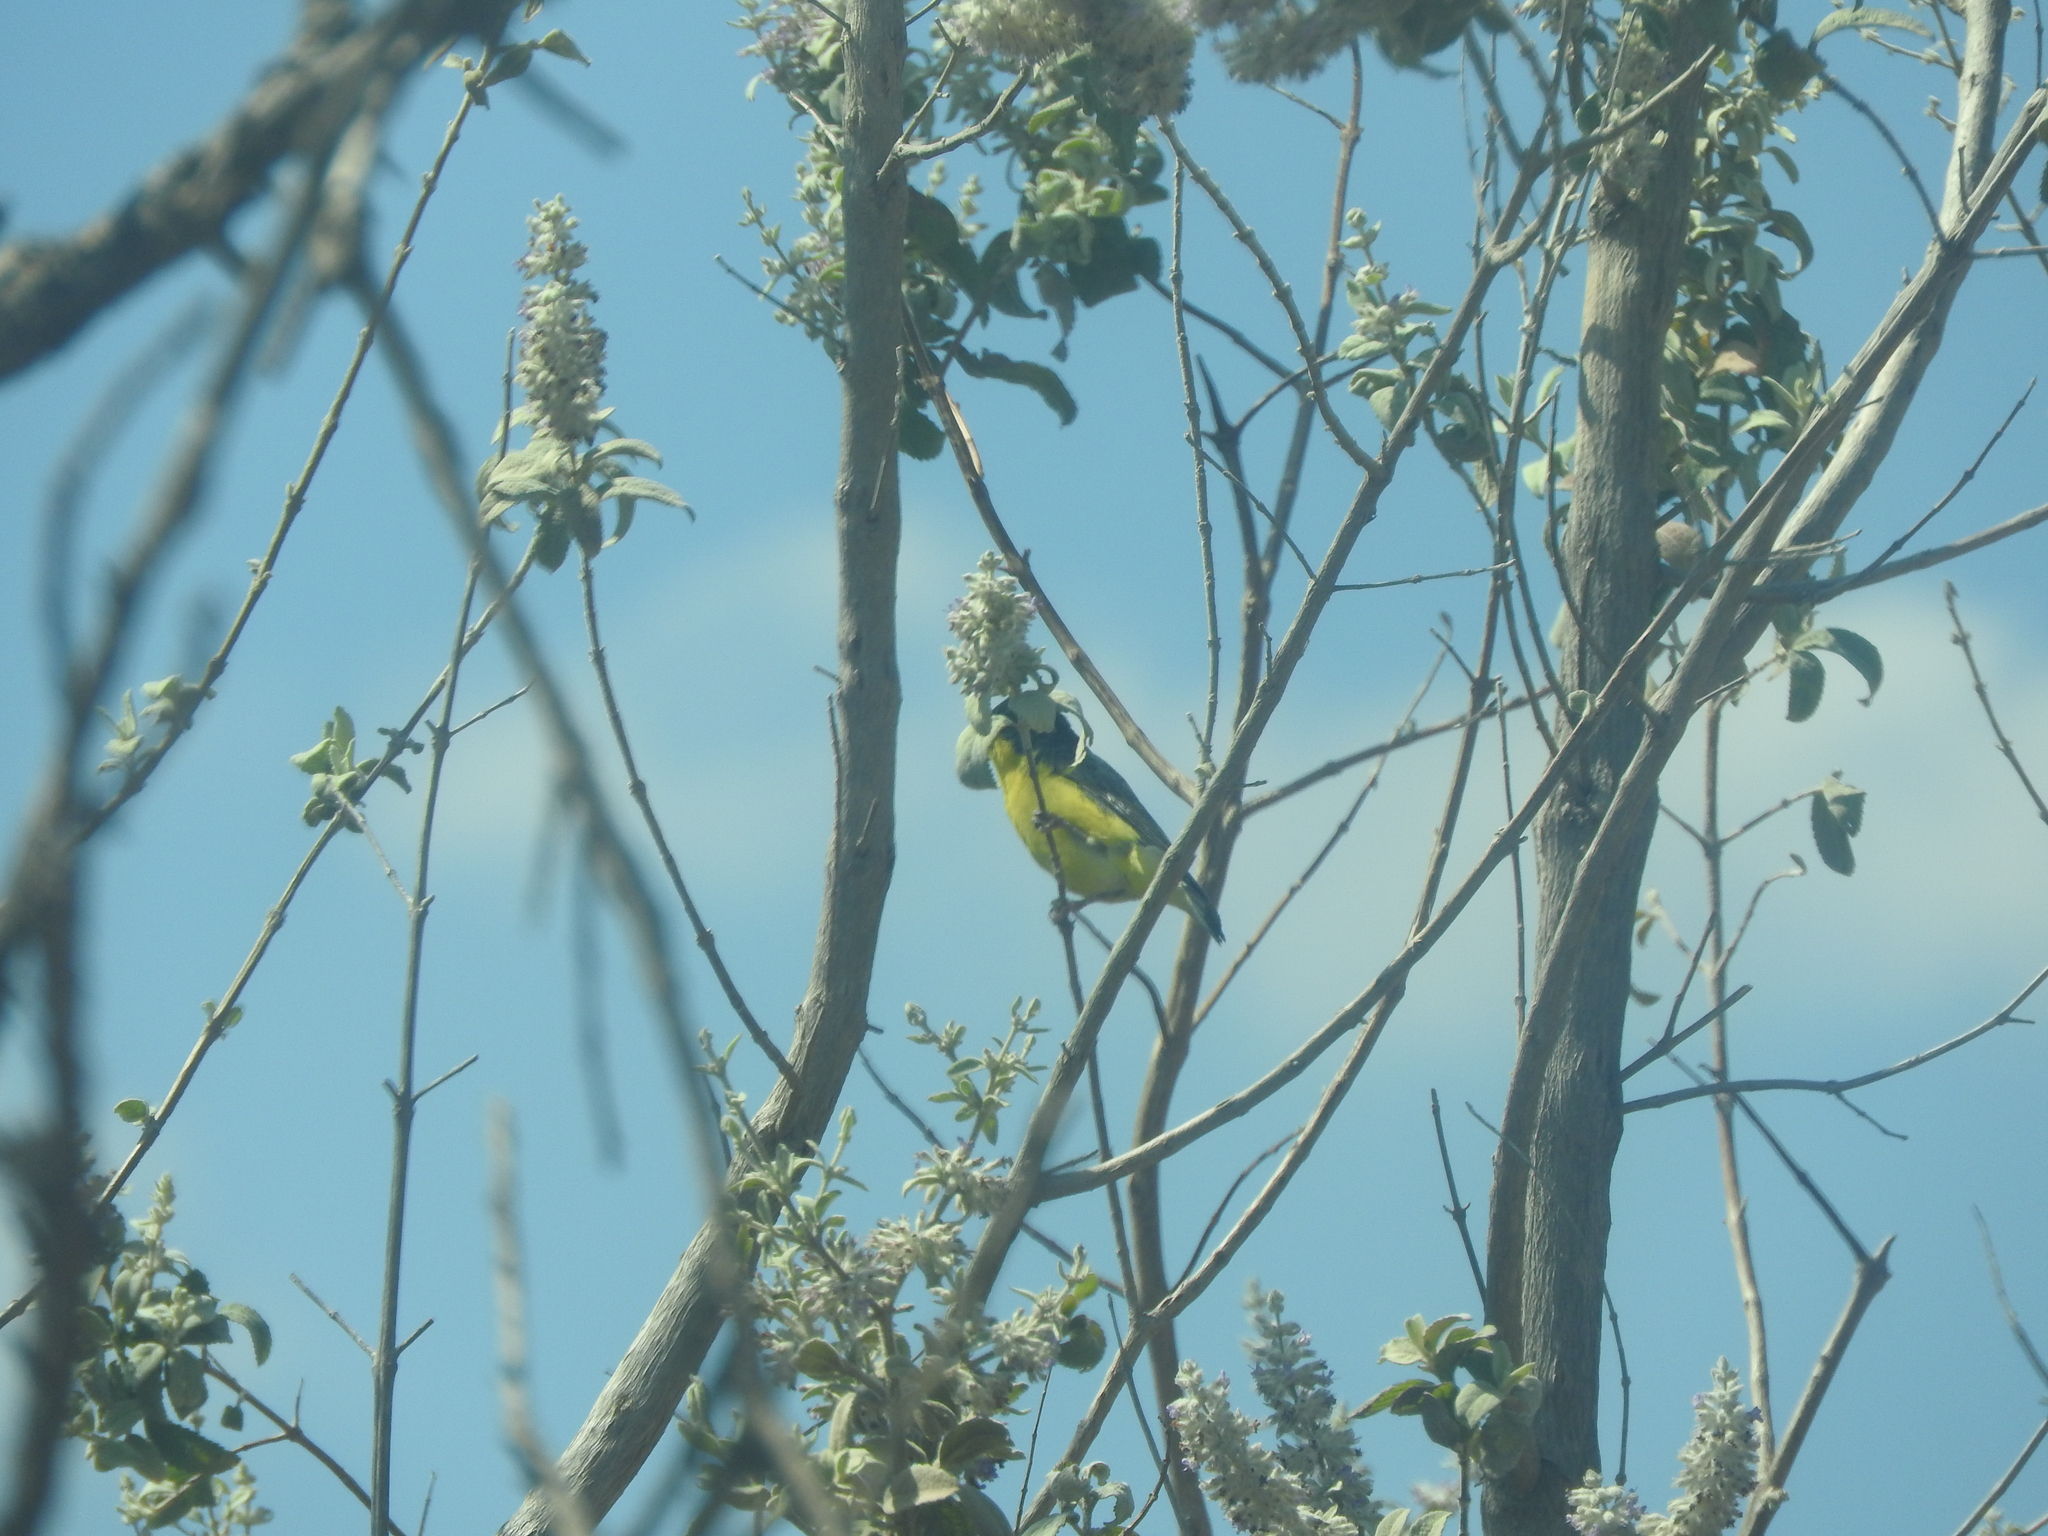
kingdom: Animalia
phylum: Chordata
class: Aves
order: Passeriformes
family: Fringillidae
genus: Spinus
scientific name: Spinus psaltria
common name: Lesser goldfinch
